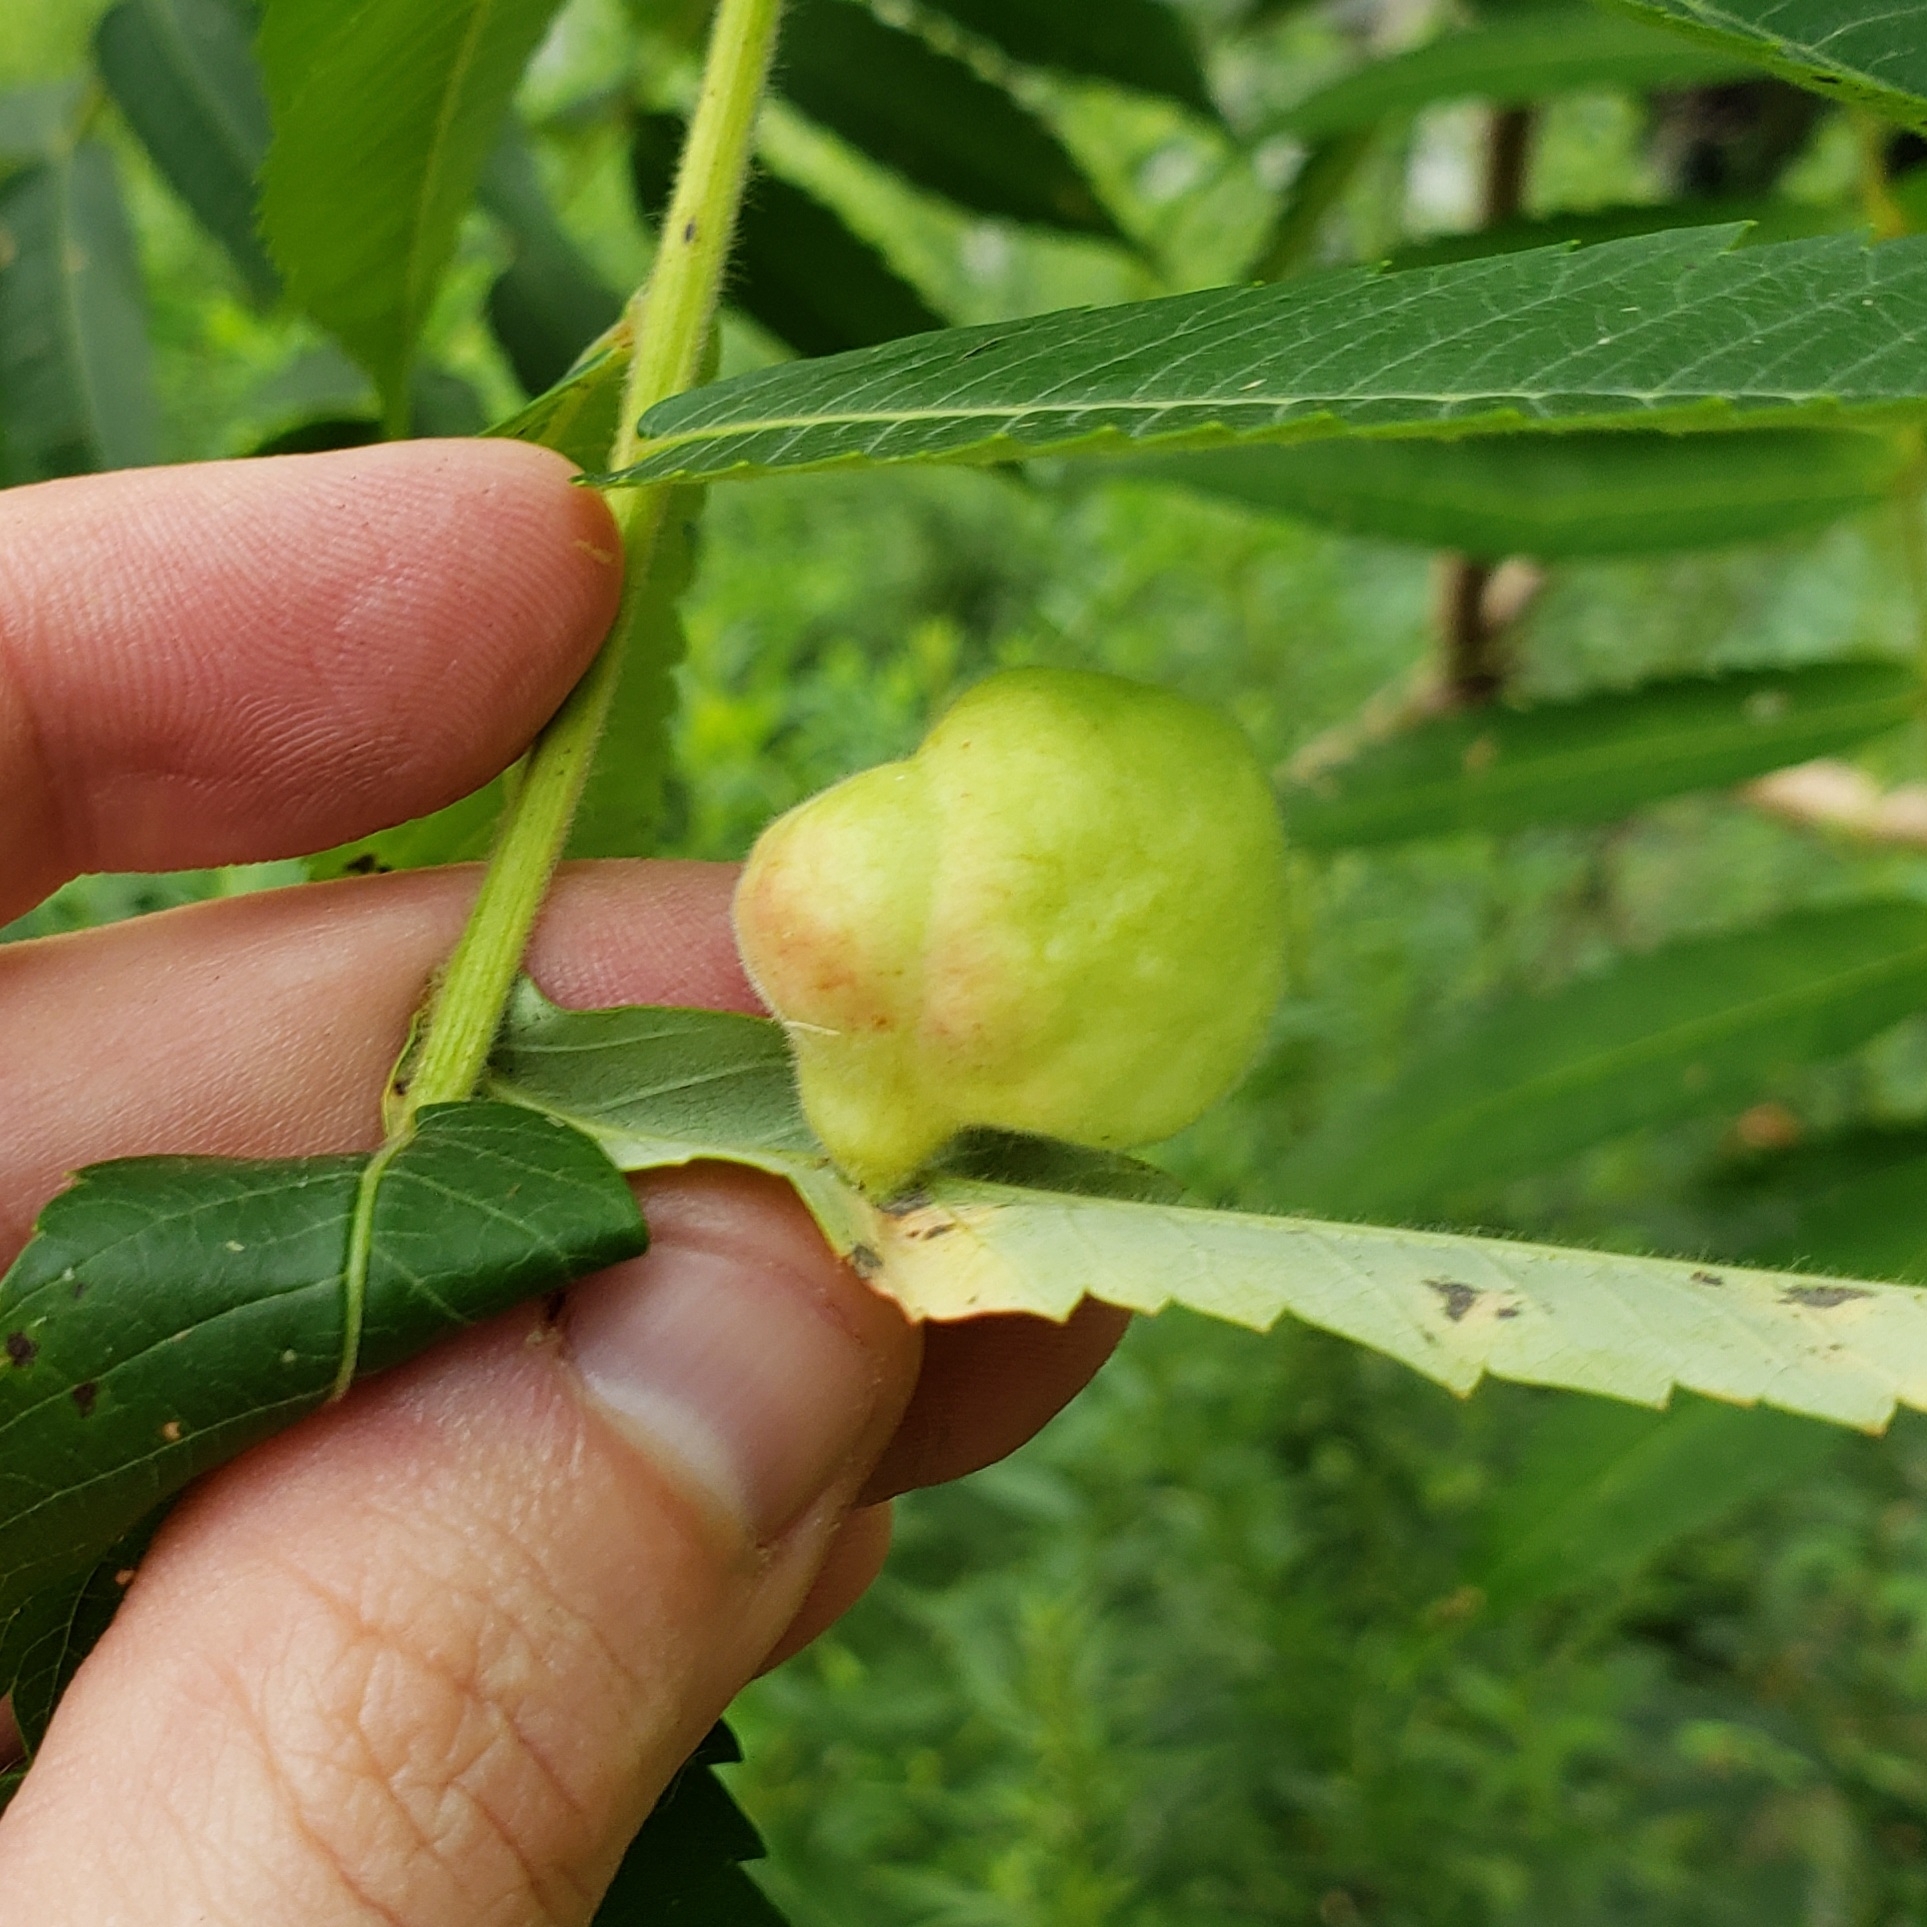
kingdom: Animalia
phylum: Arthropoda
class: Insecta
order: Hemiptera
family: Aphididae
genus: Melaphis
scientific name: Melaphis rhois
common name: Sumac gall aphid
